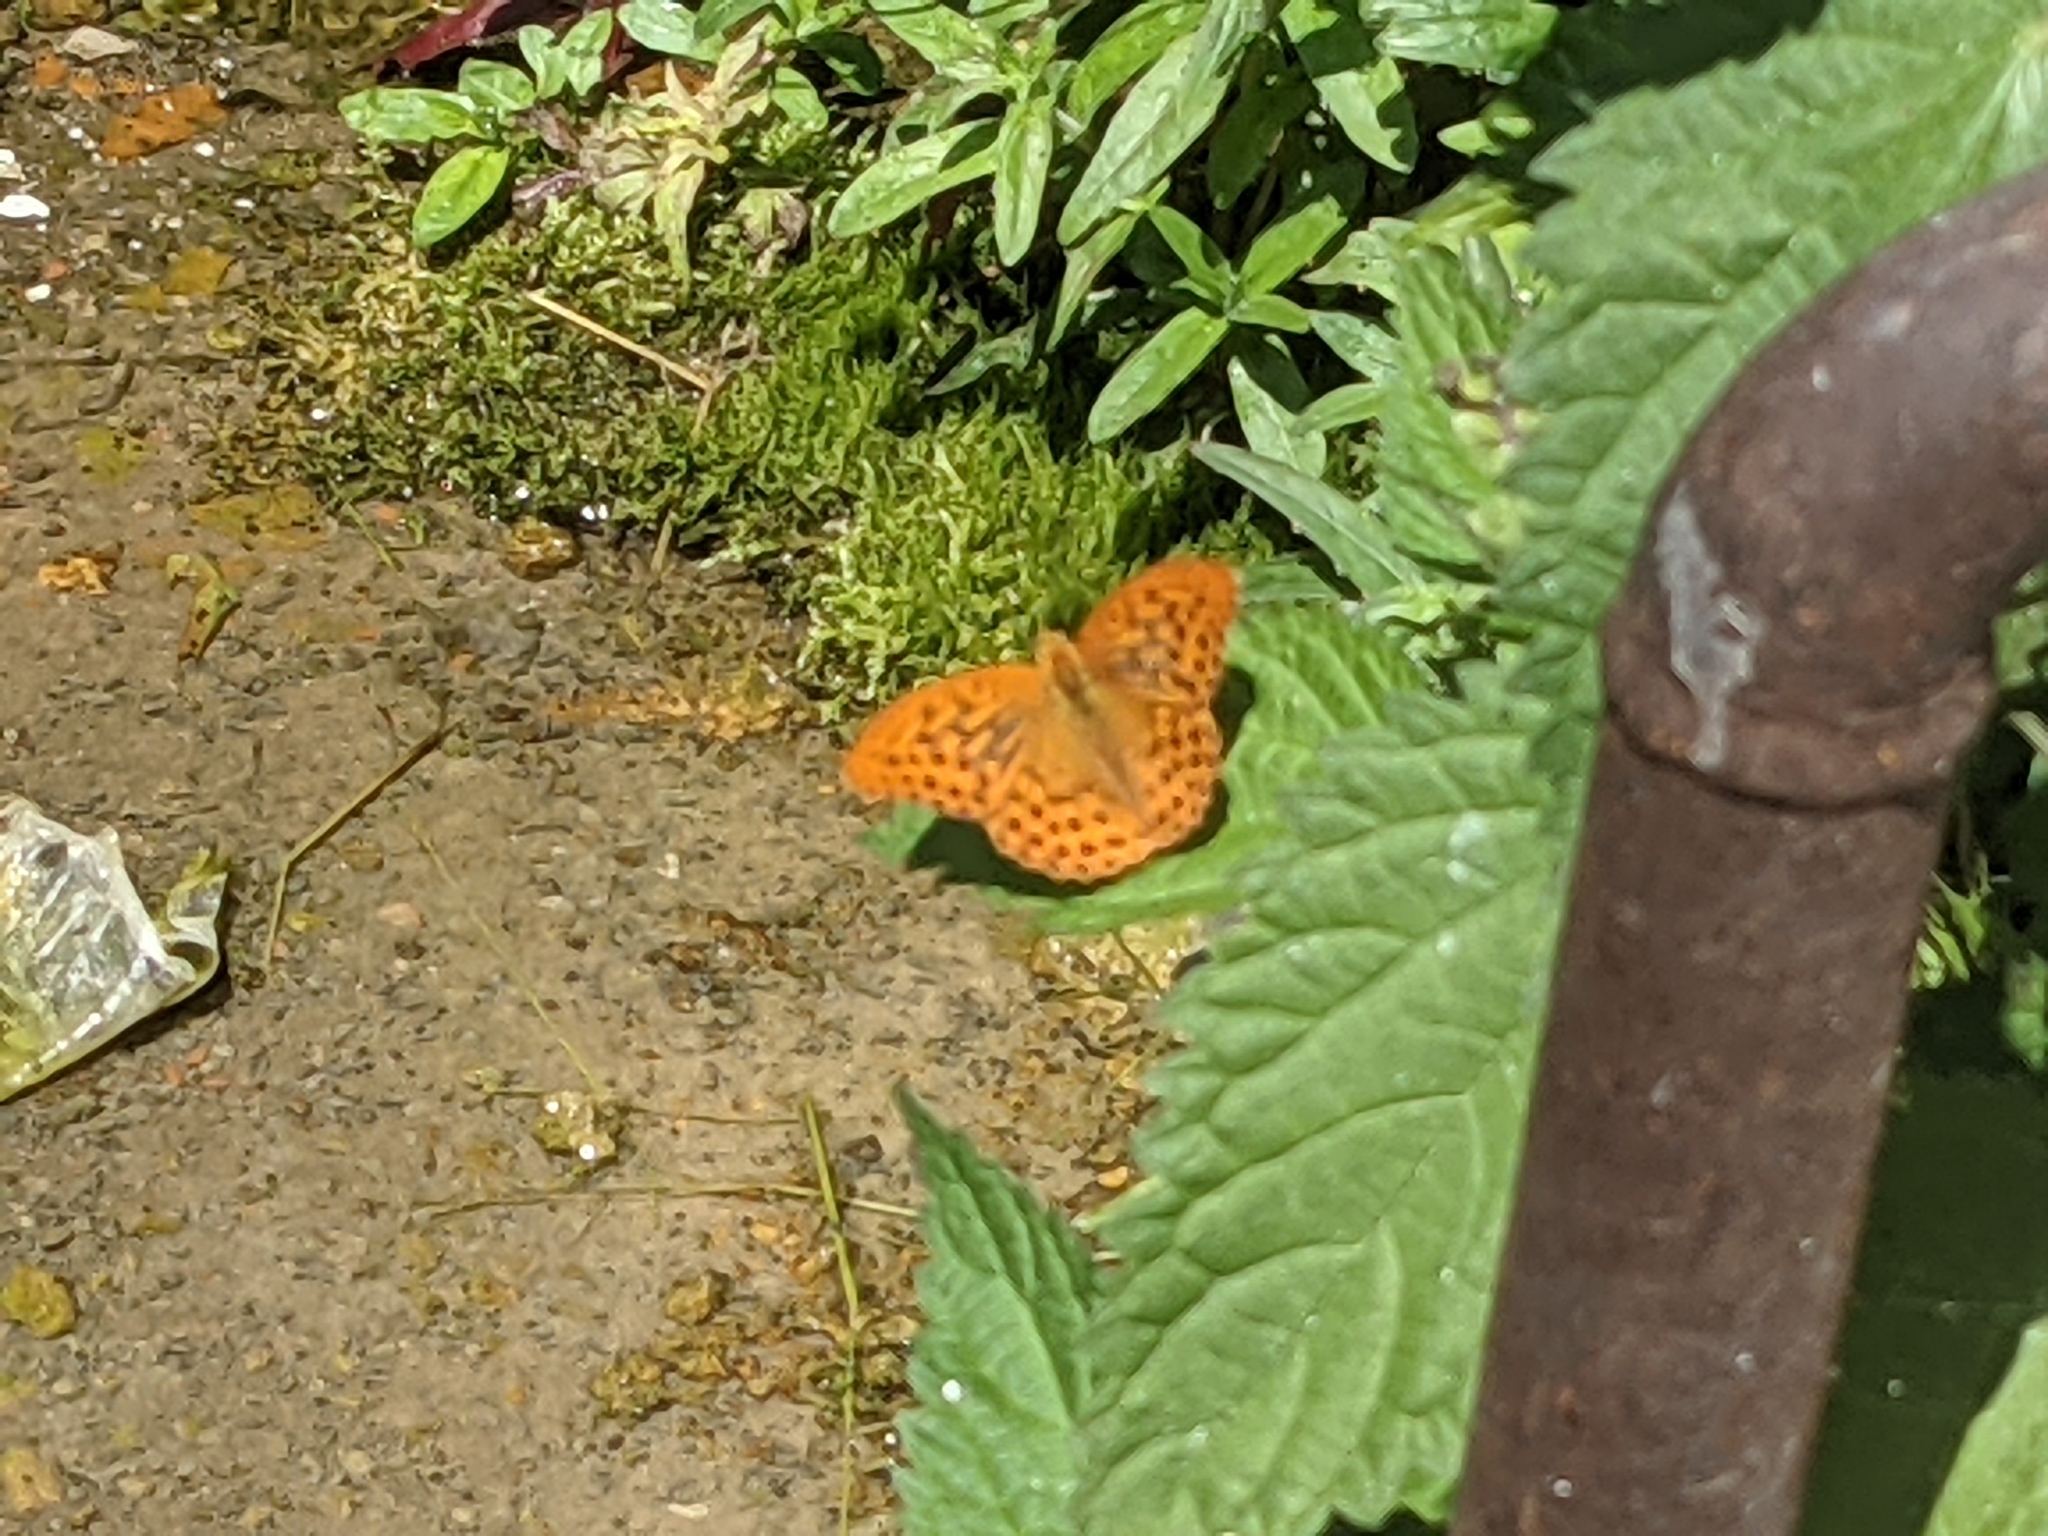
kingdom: Animalia
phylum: Arthropoda
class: Insecta
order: Lepidoptera
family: Nymphalidae
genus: Argynnis
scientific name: Argynnis paphia
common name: Silver-washed fritillary
